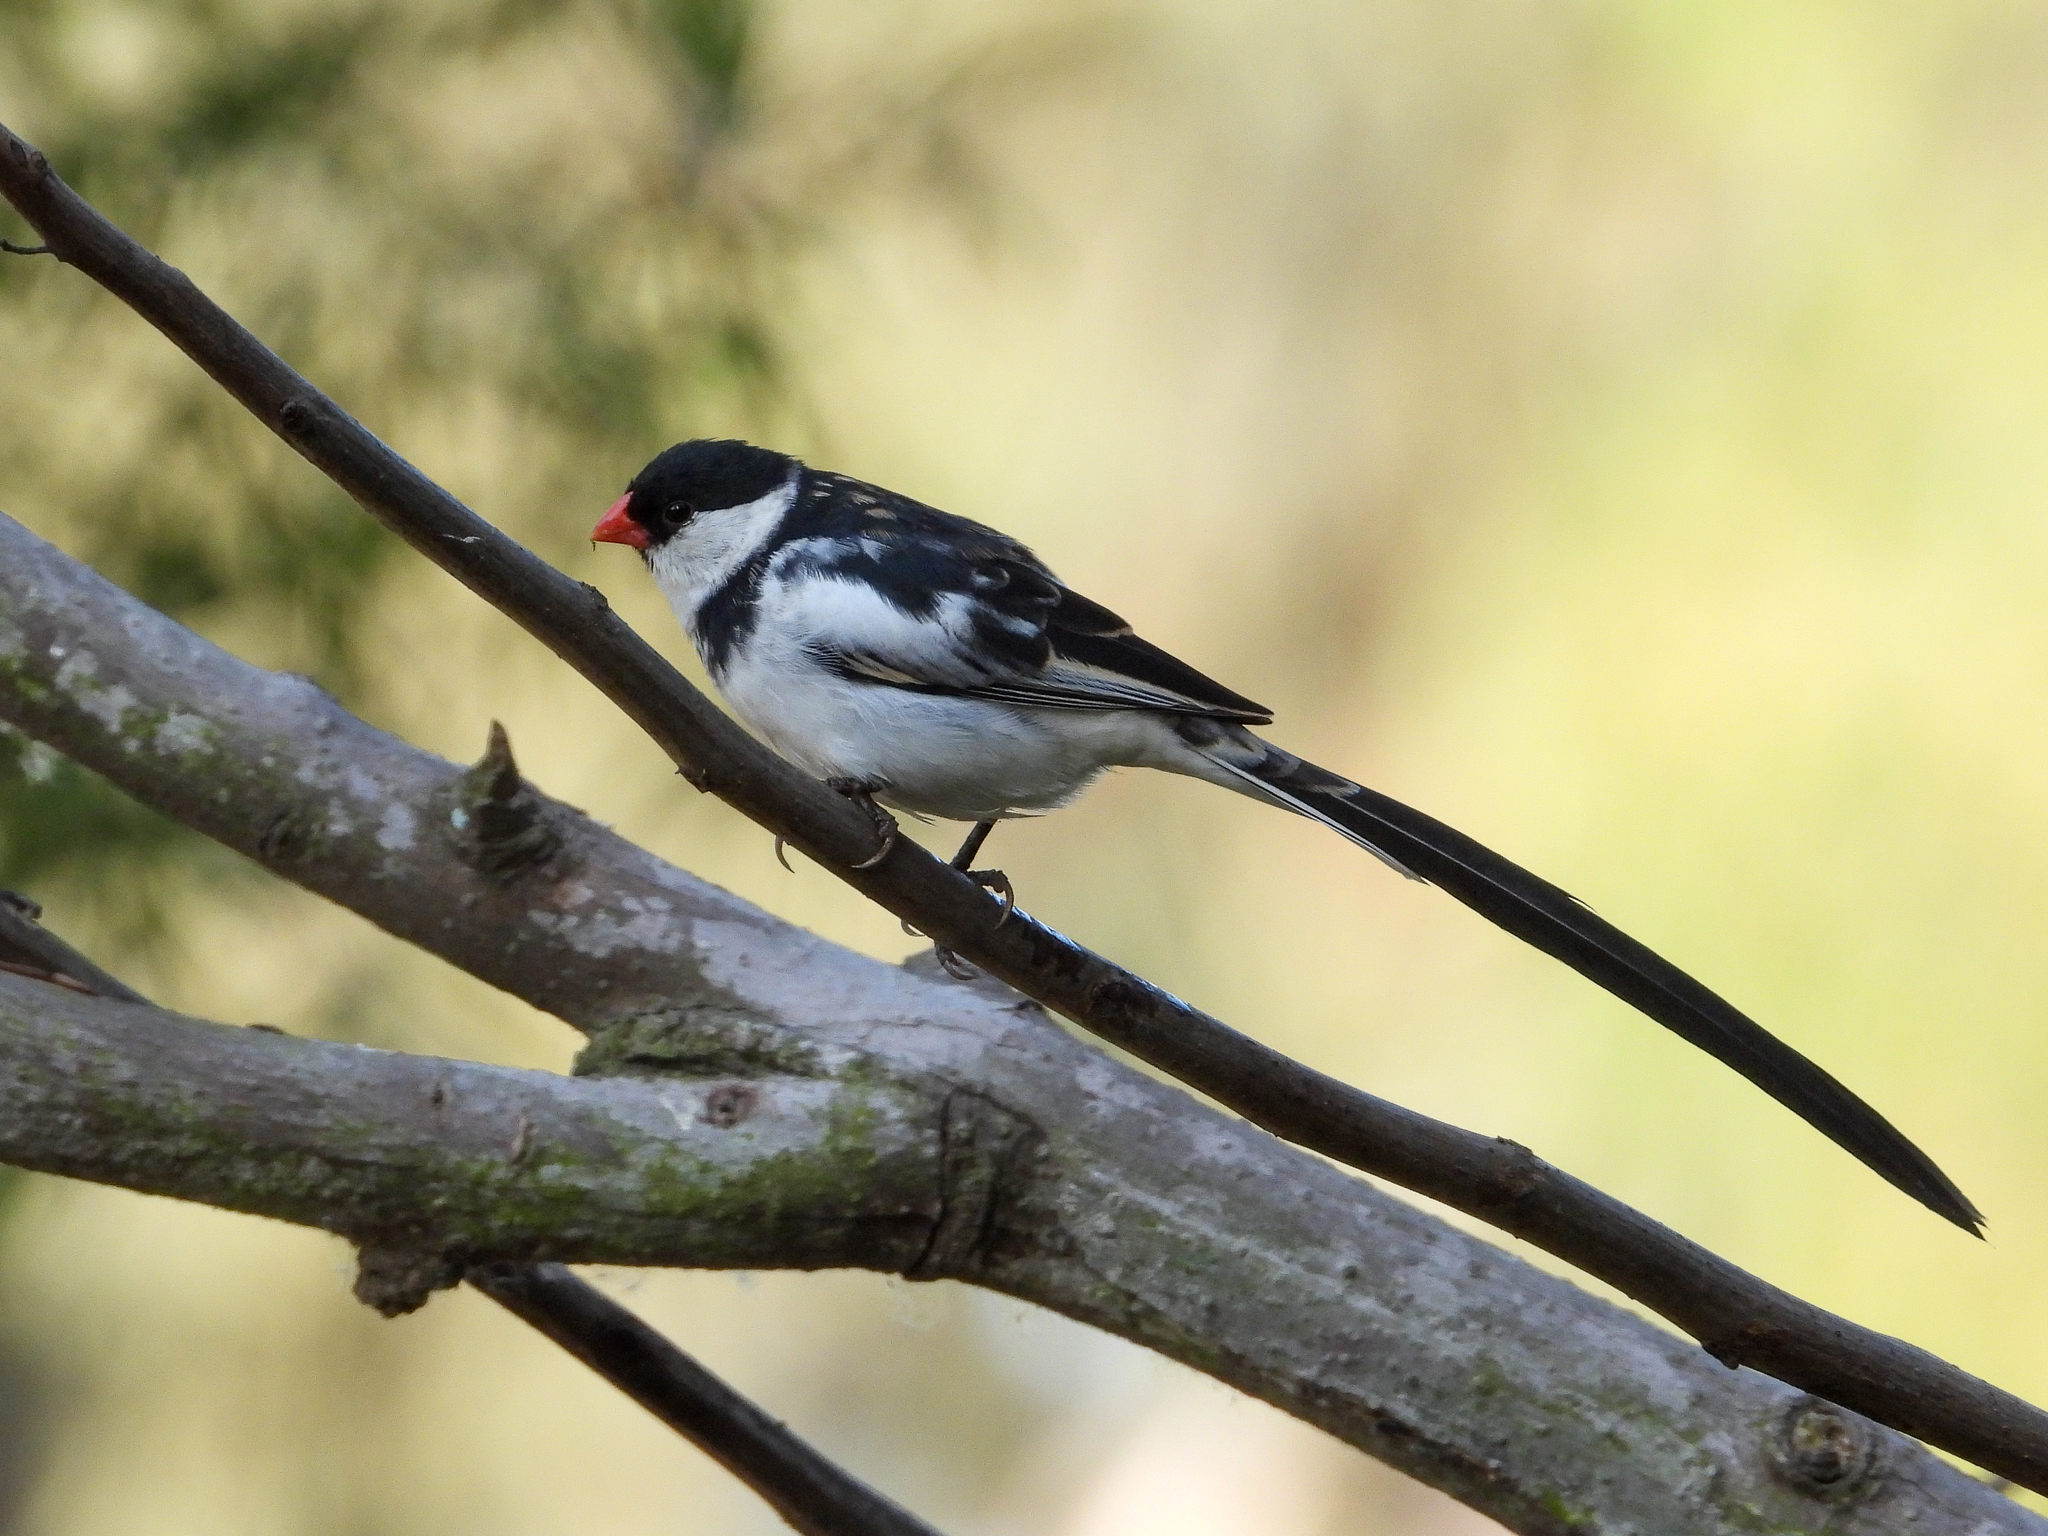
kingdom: Animalia
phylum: Chordata
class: Aves
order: Passeriformes
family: Viduidae
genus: Vidua
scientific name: Vidua macroura
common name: Pin-tailed whydah
